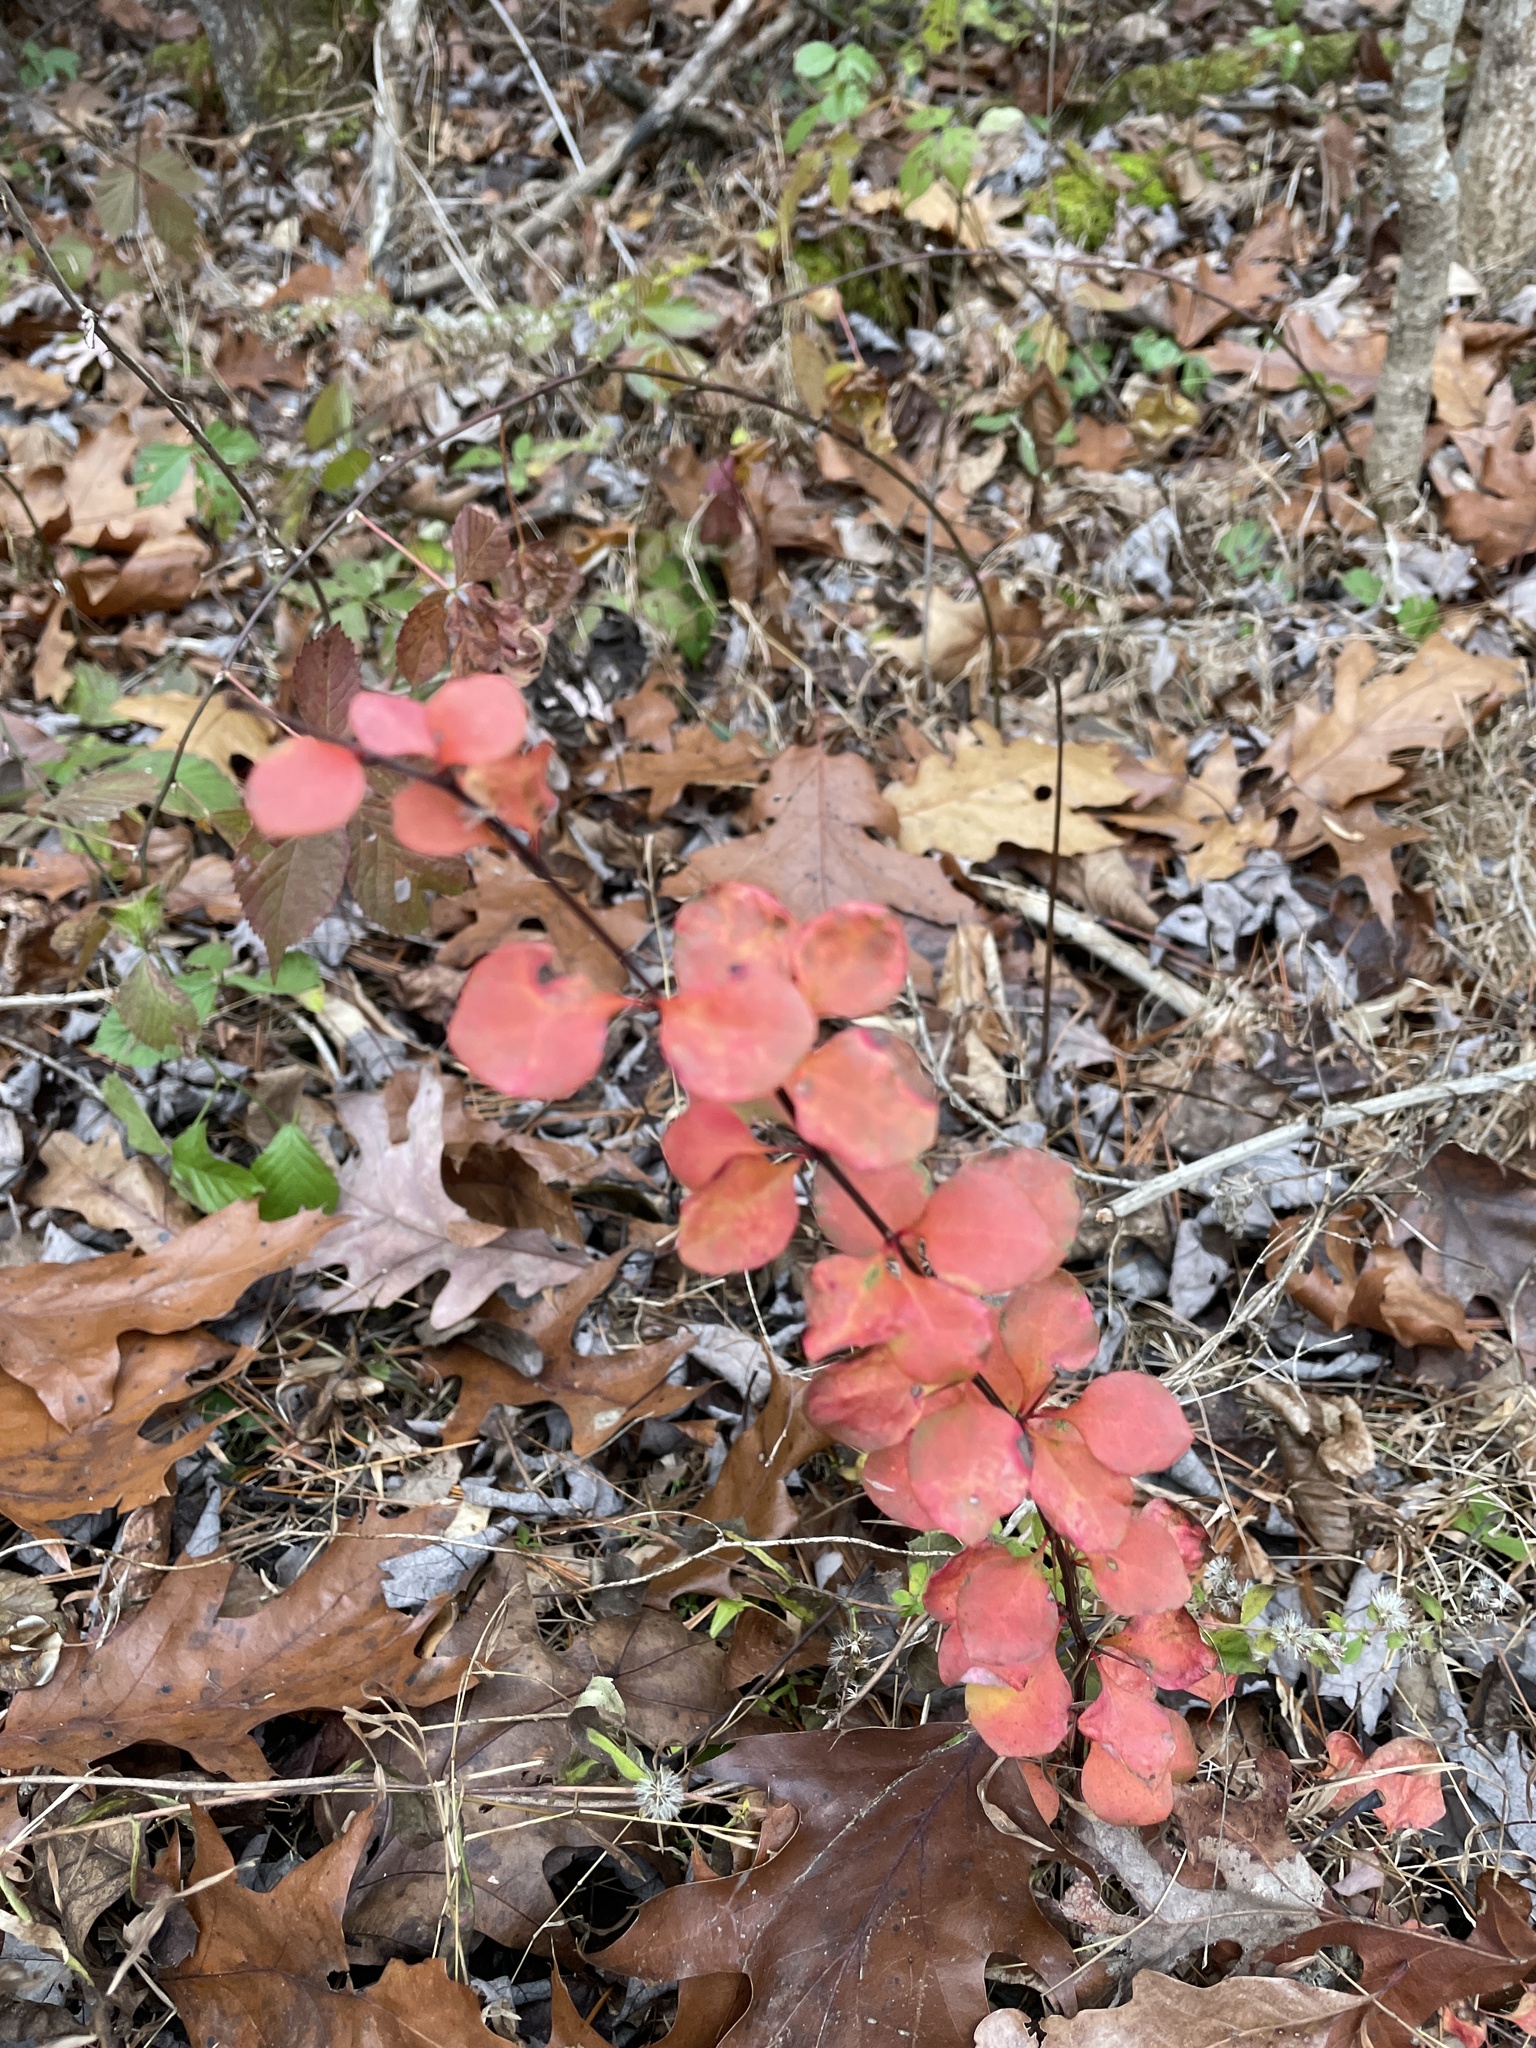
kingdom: Plantae
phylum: Tracheophyta
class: Magnoliopsida
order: Ranunculales
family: Berberidaceae
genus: Berberis
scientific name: Berberis thunbergii
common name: Japanese barberry
